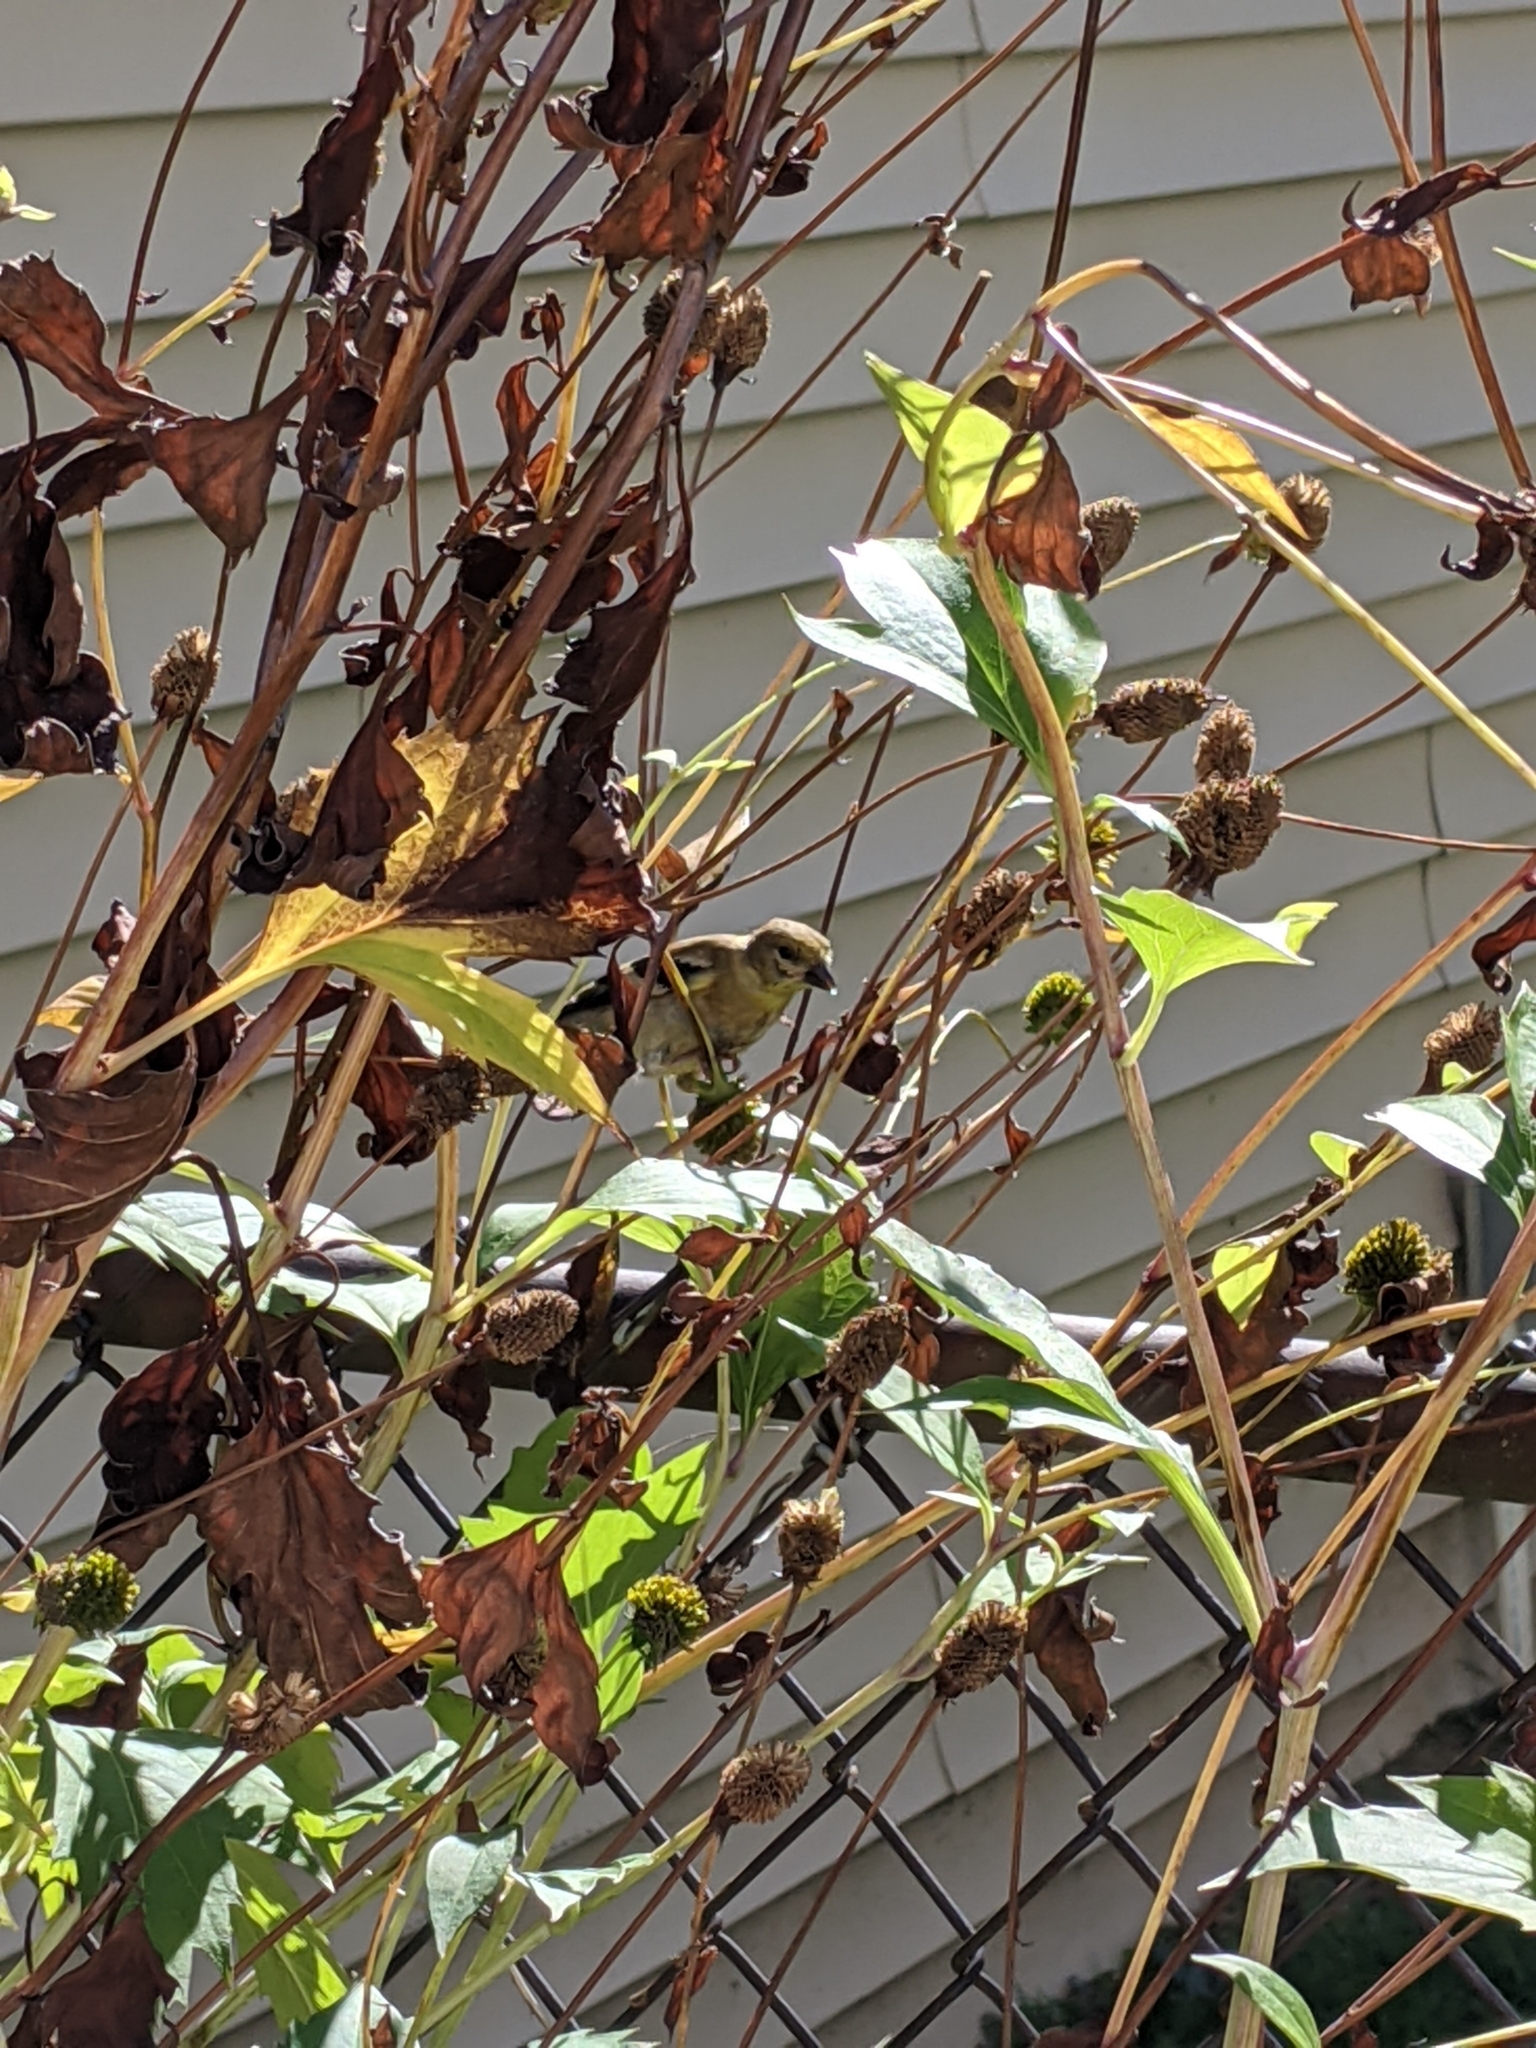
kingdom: Animalia
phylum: Chordata
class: Aves
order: Passeriformes
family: Fringillidae
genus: Spinus
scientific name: Spinus tristis
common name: American goldfinch
